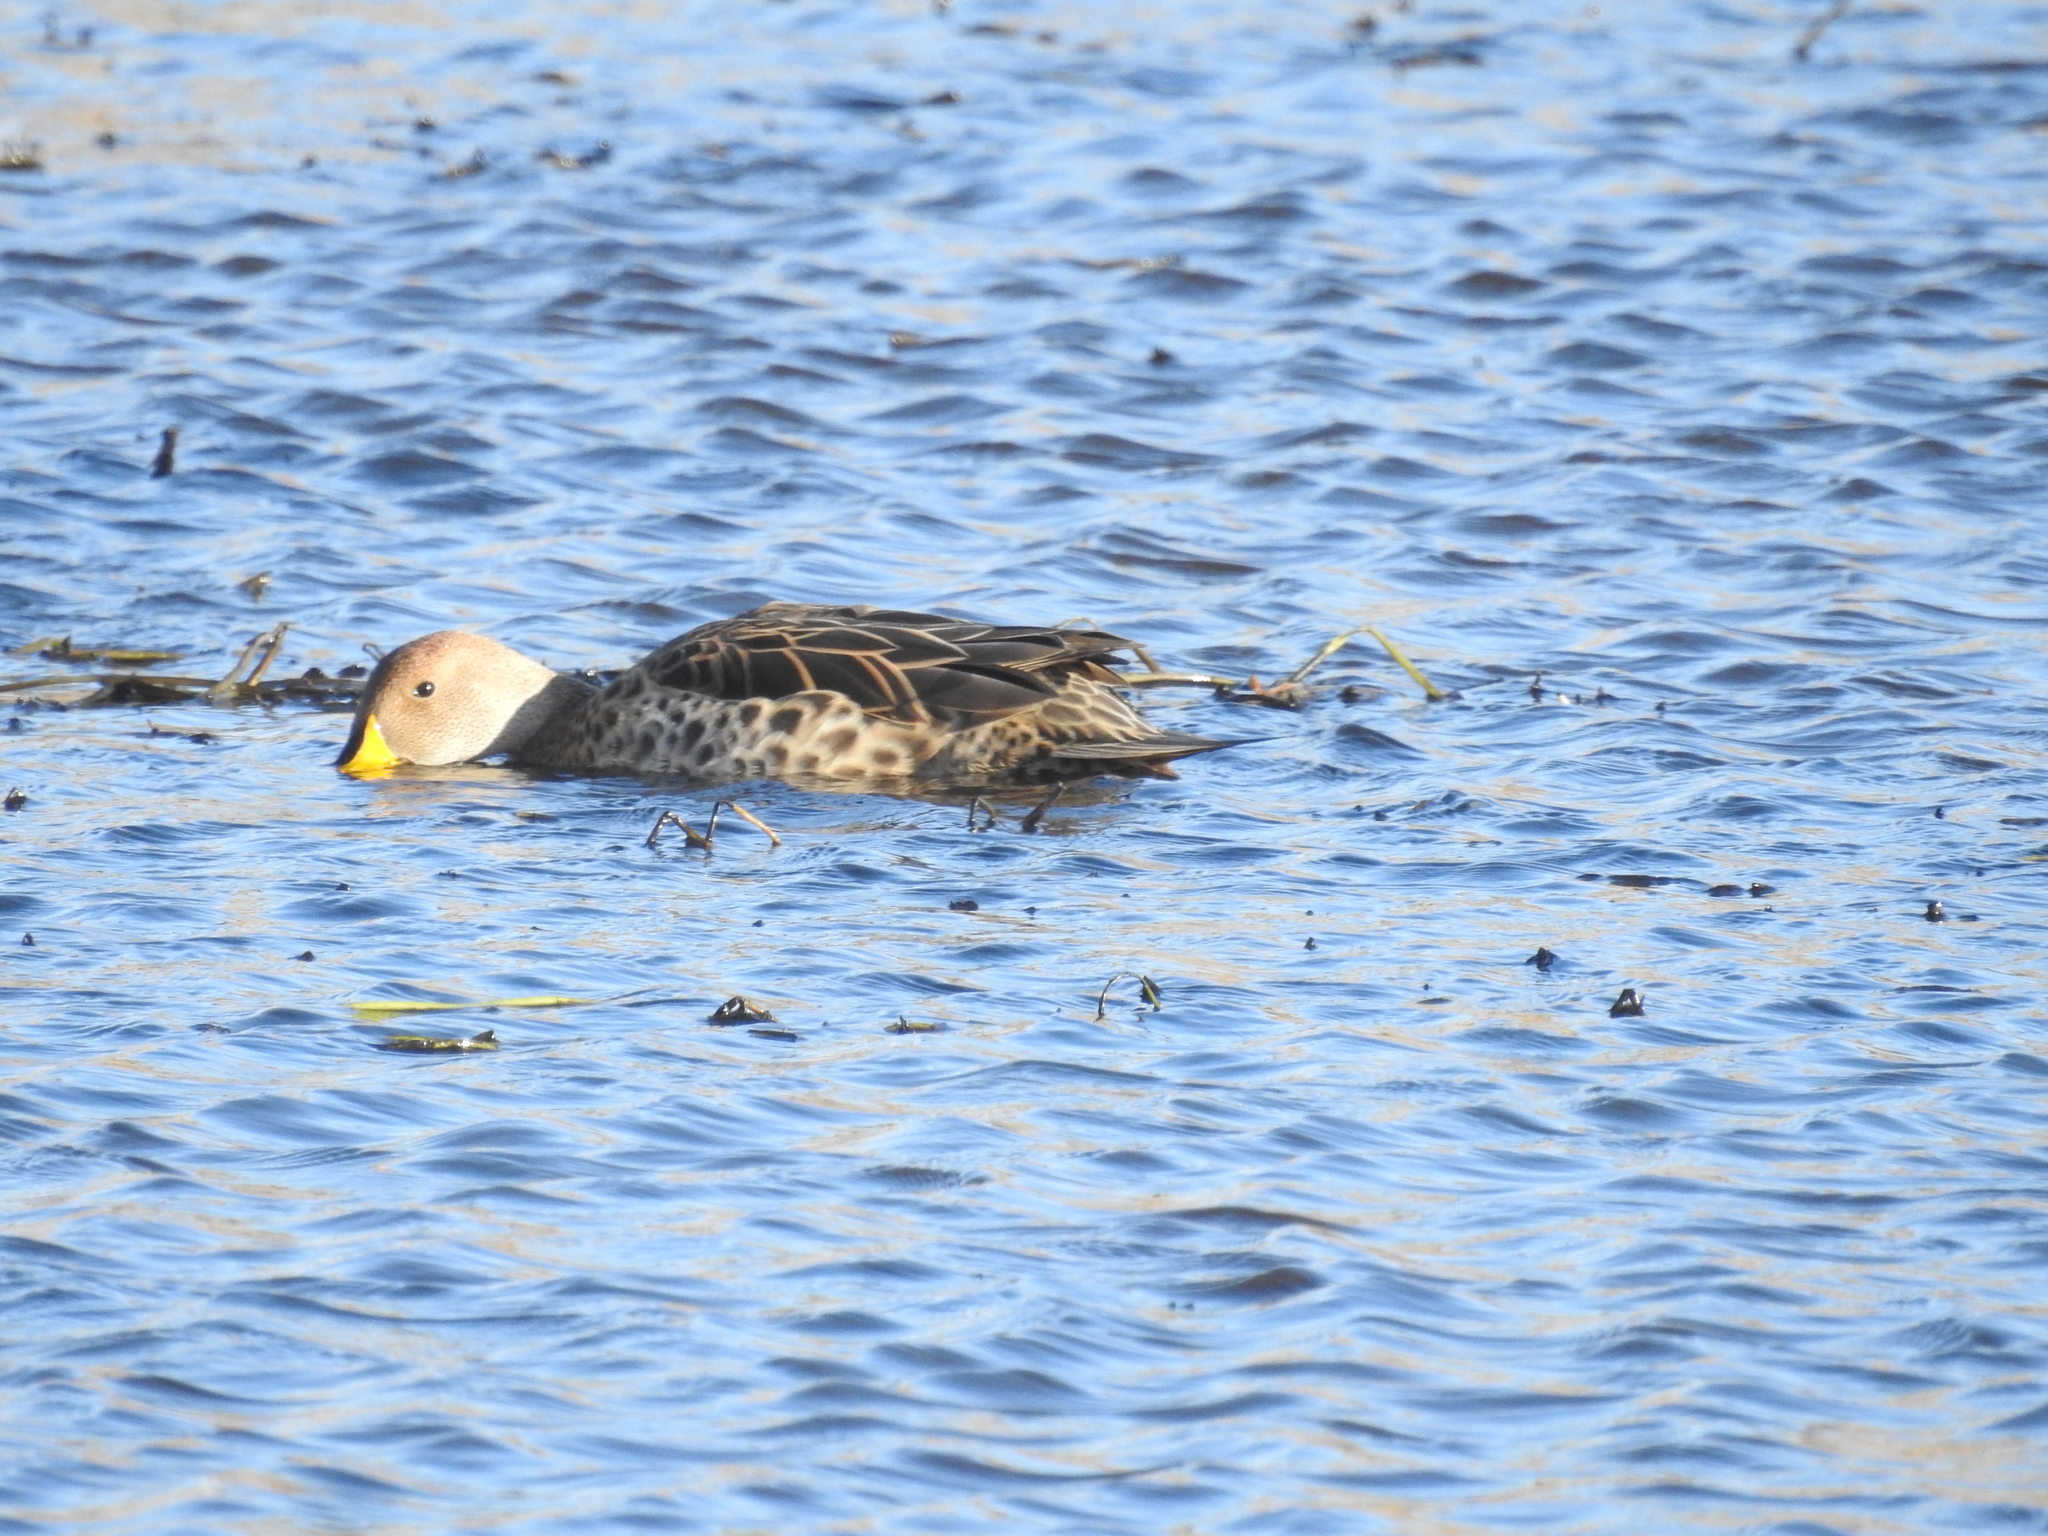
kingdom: Animalia
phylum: Chordata
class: Aves
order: Anseriformes
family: Anatidae
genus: Anas
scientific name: Anas georgica
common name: Yellow-billed pintail
